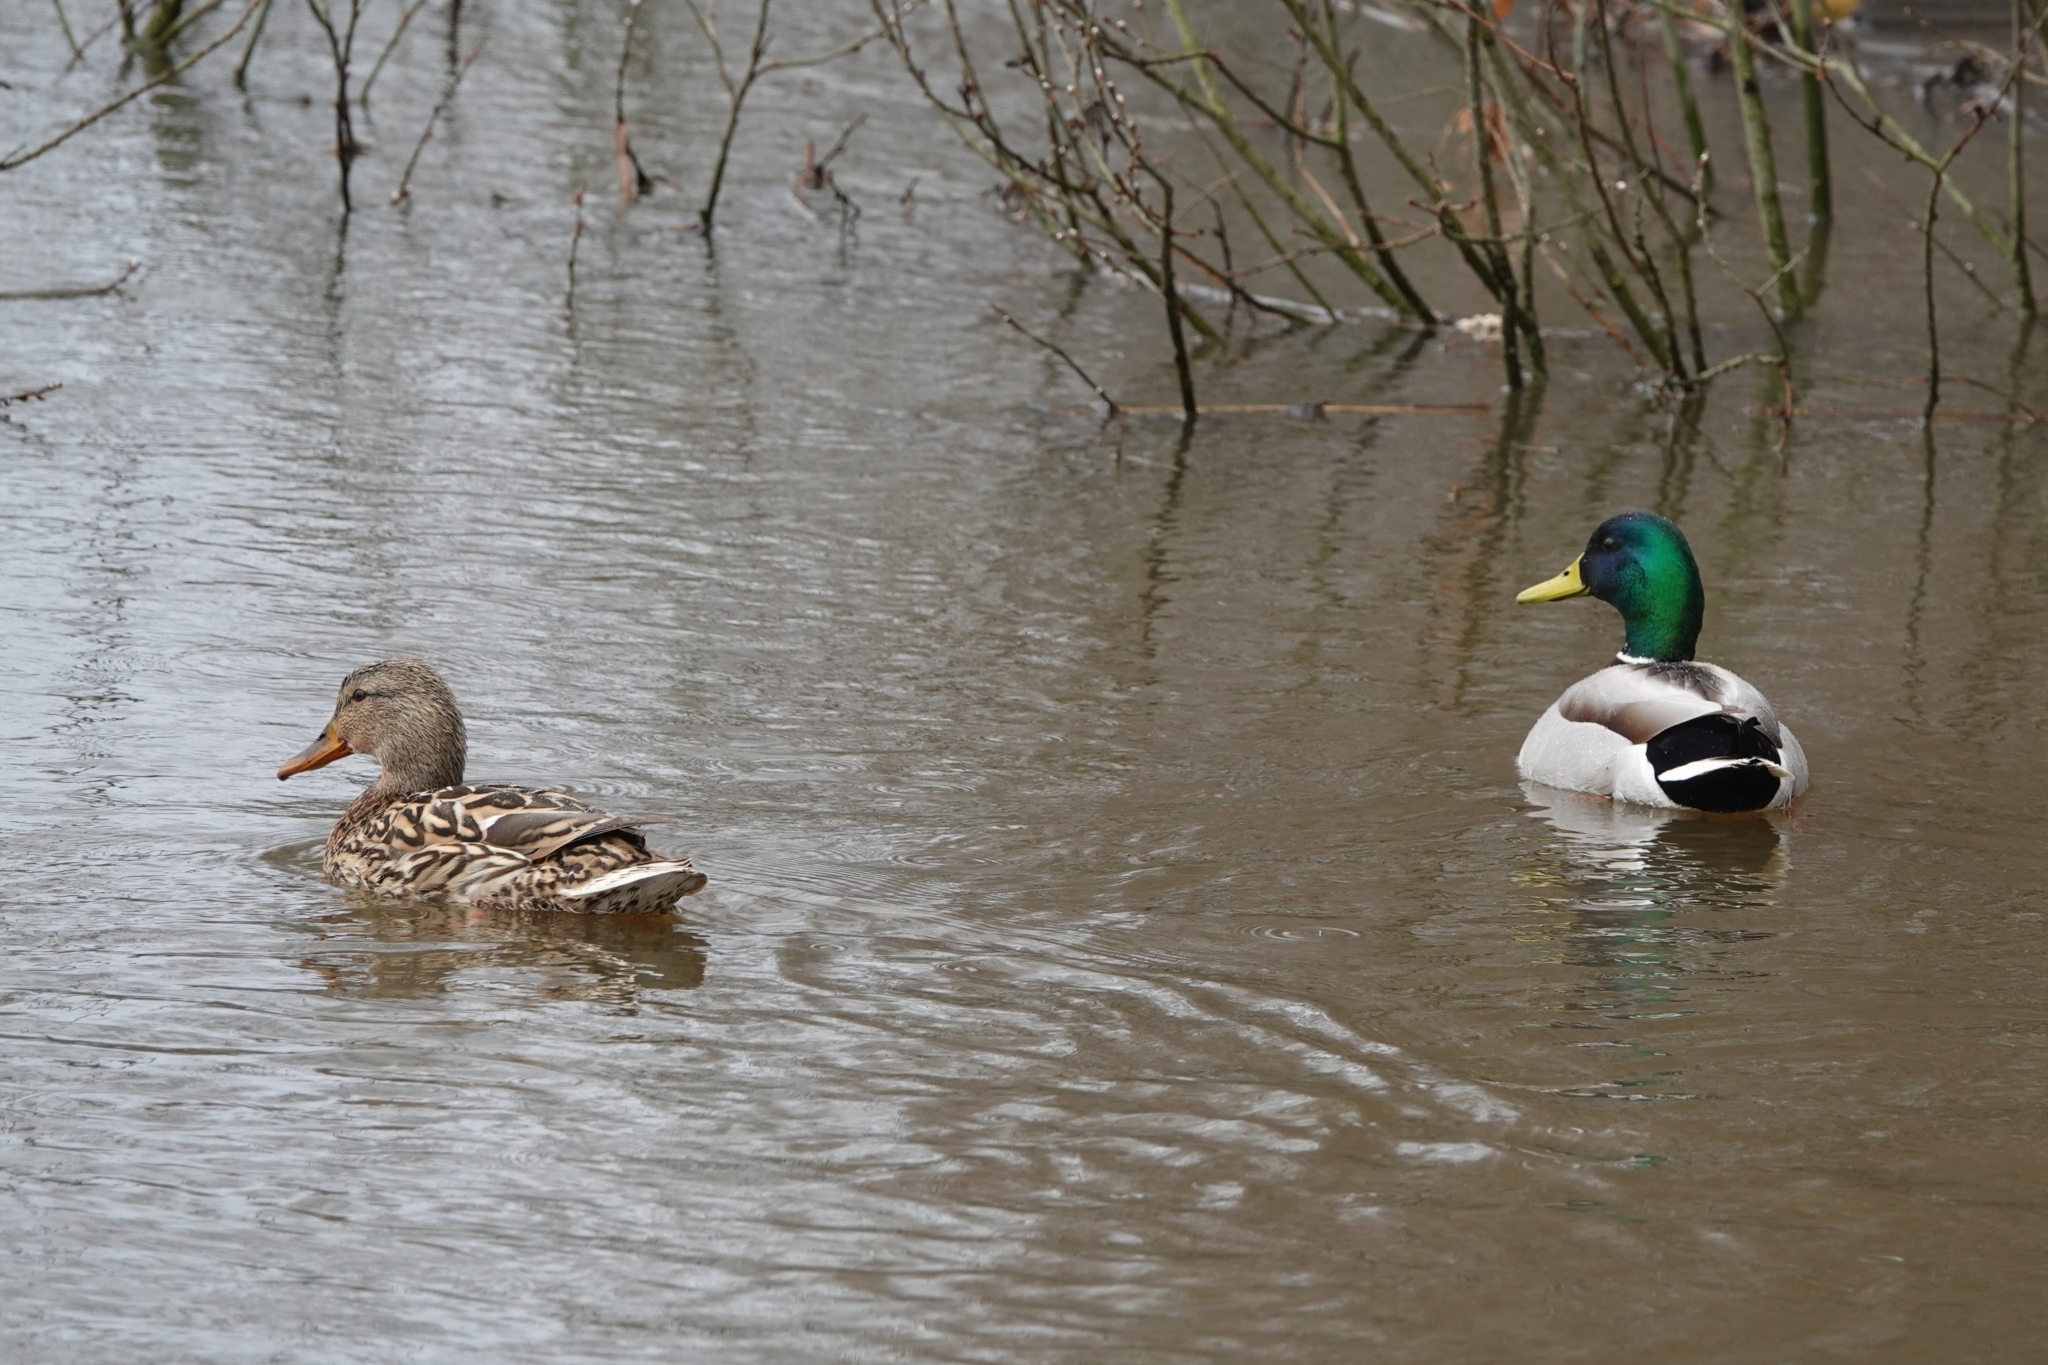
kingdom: Animalia
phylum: Chordata
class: Aves
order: Anseriformes
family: Anatidae
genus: Anas
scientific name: Anas platyrhynchos
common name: Mallard
